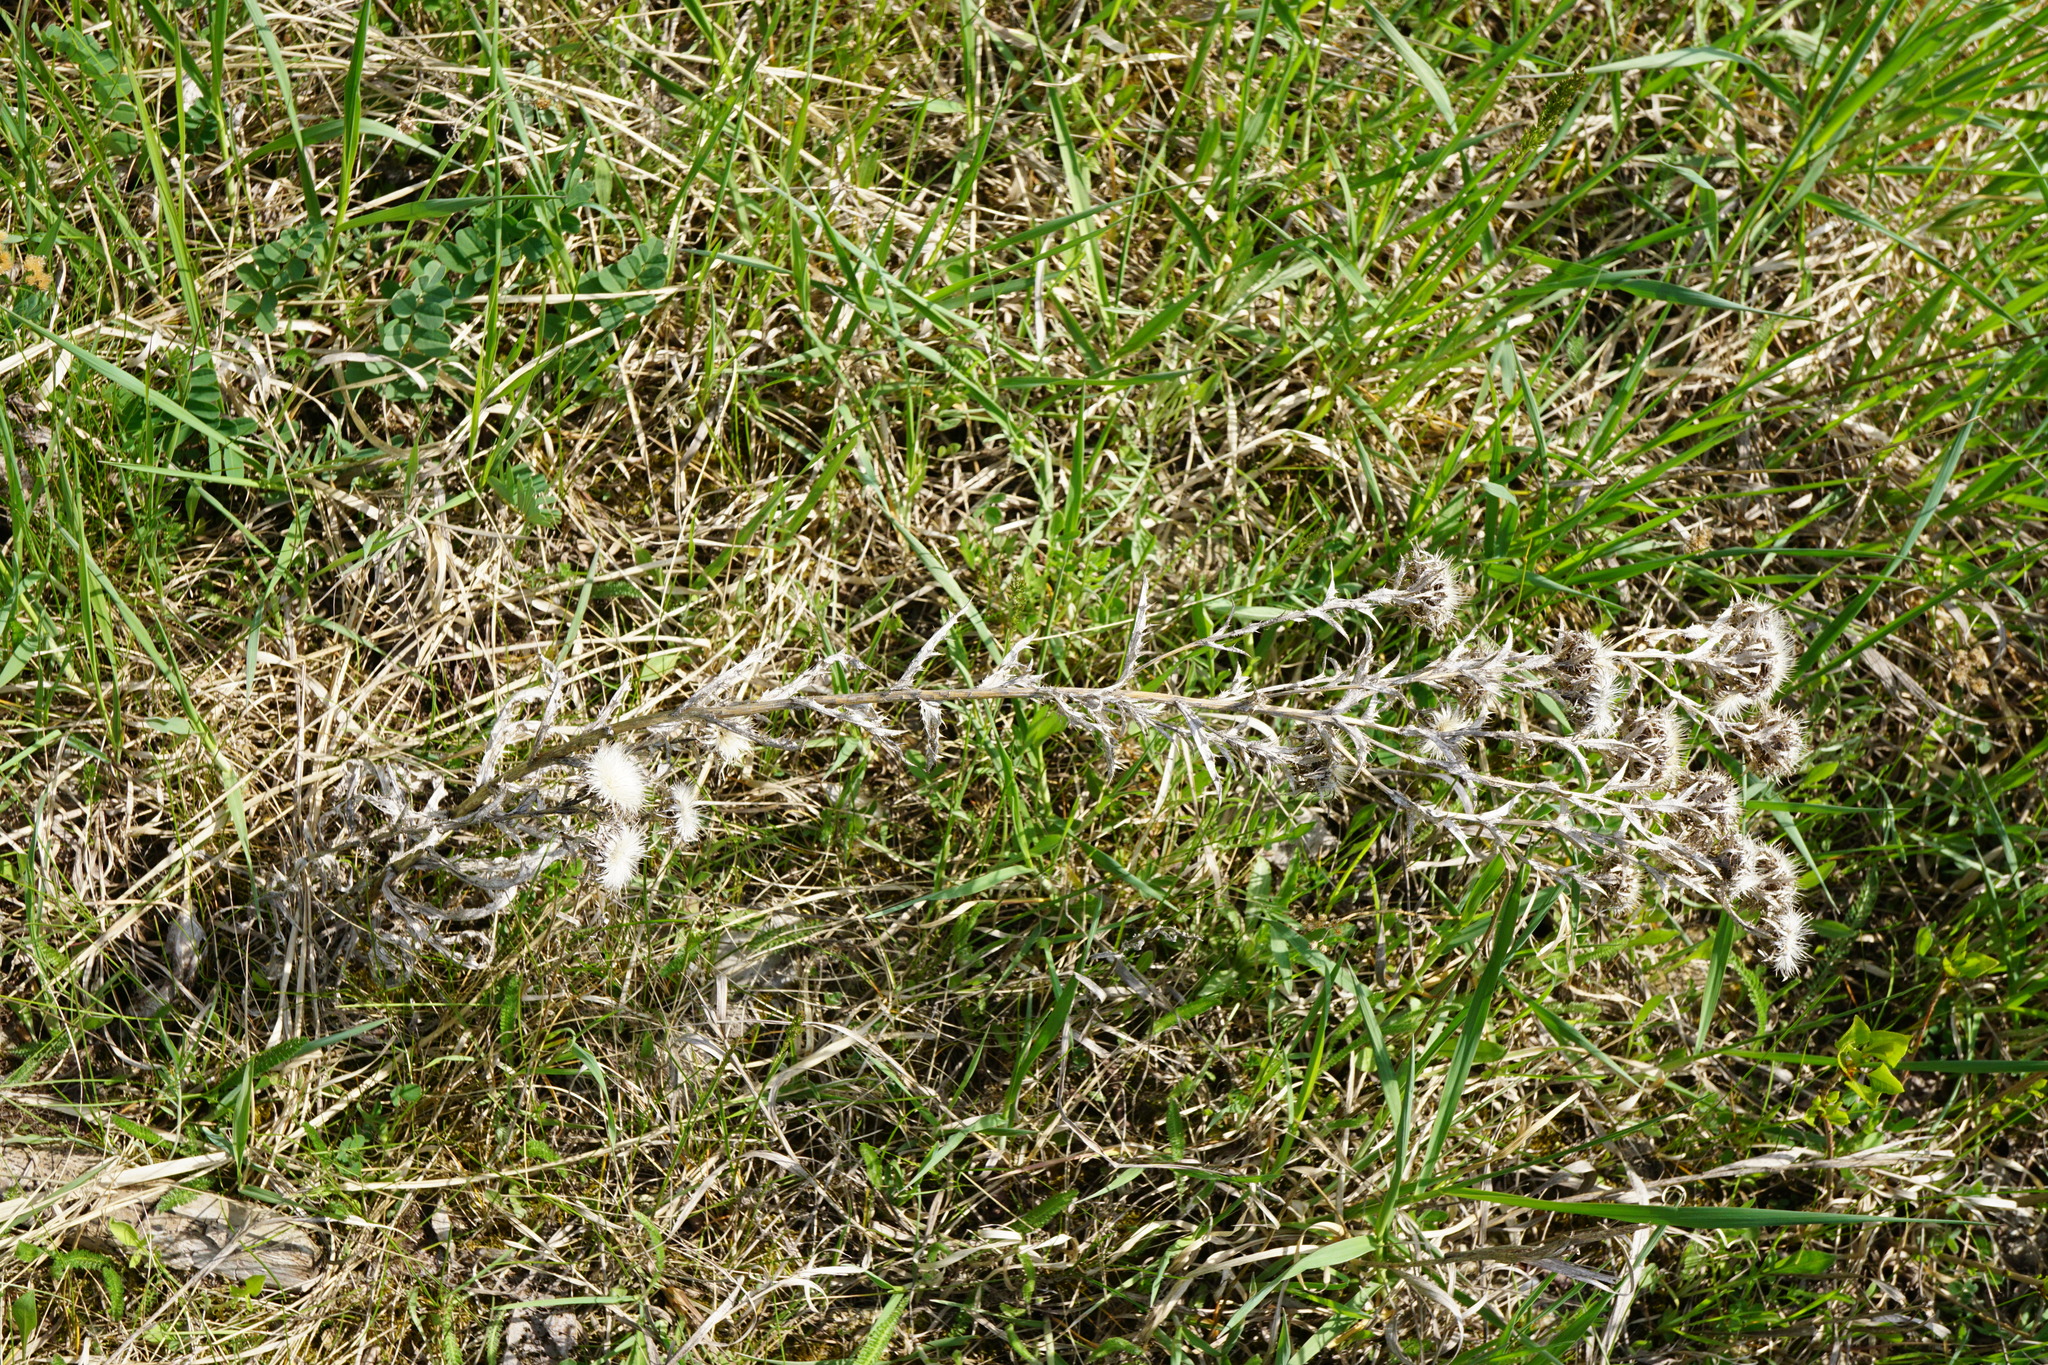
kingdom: Plantae
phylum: Tracheophyta
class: Magnoliopsida
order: Asterales
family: Asteraceae
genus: Carlina
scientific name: Carlina vulgaris
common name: Carline thistle
